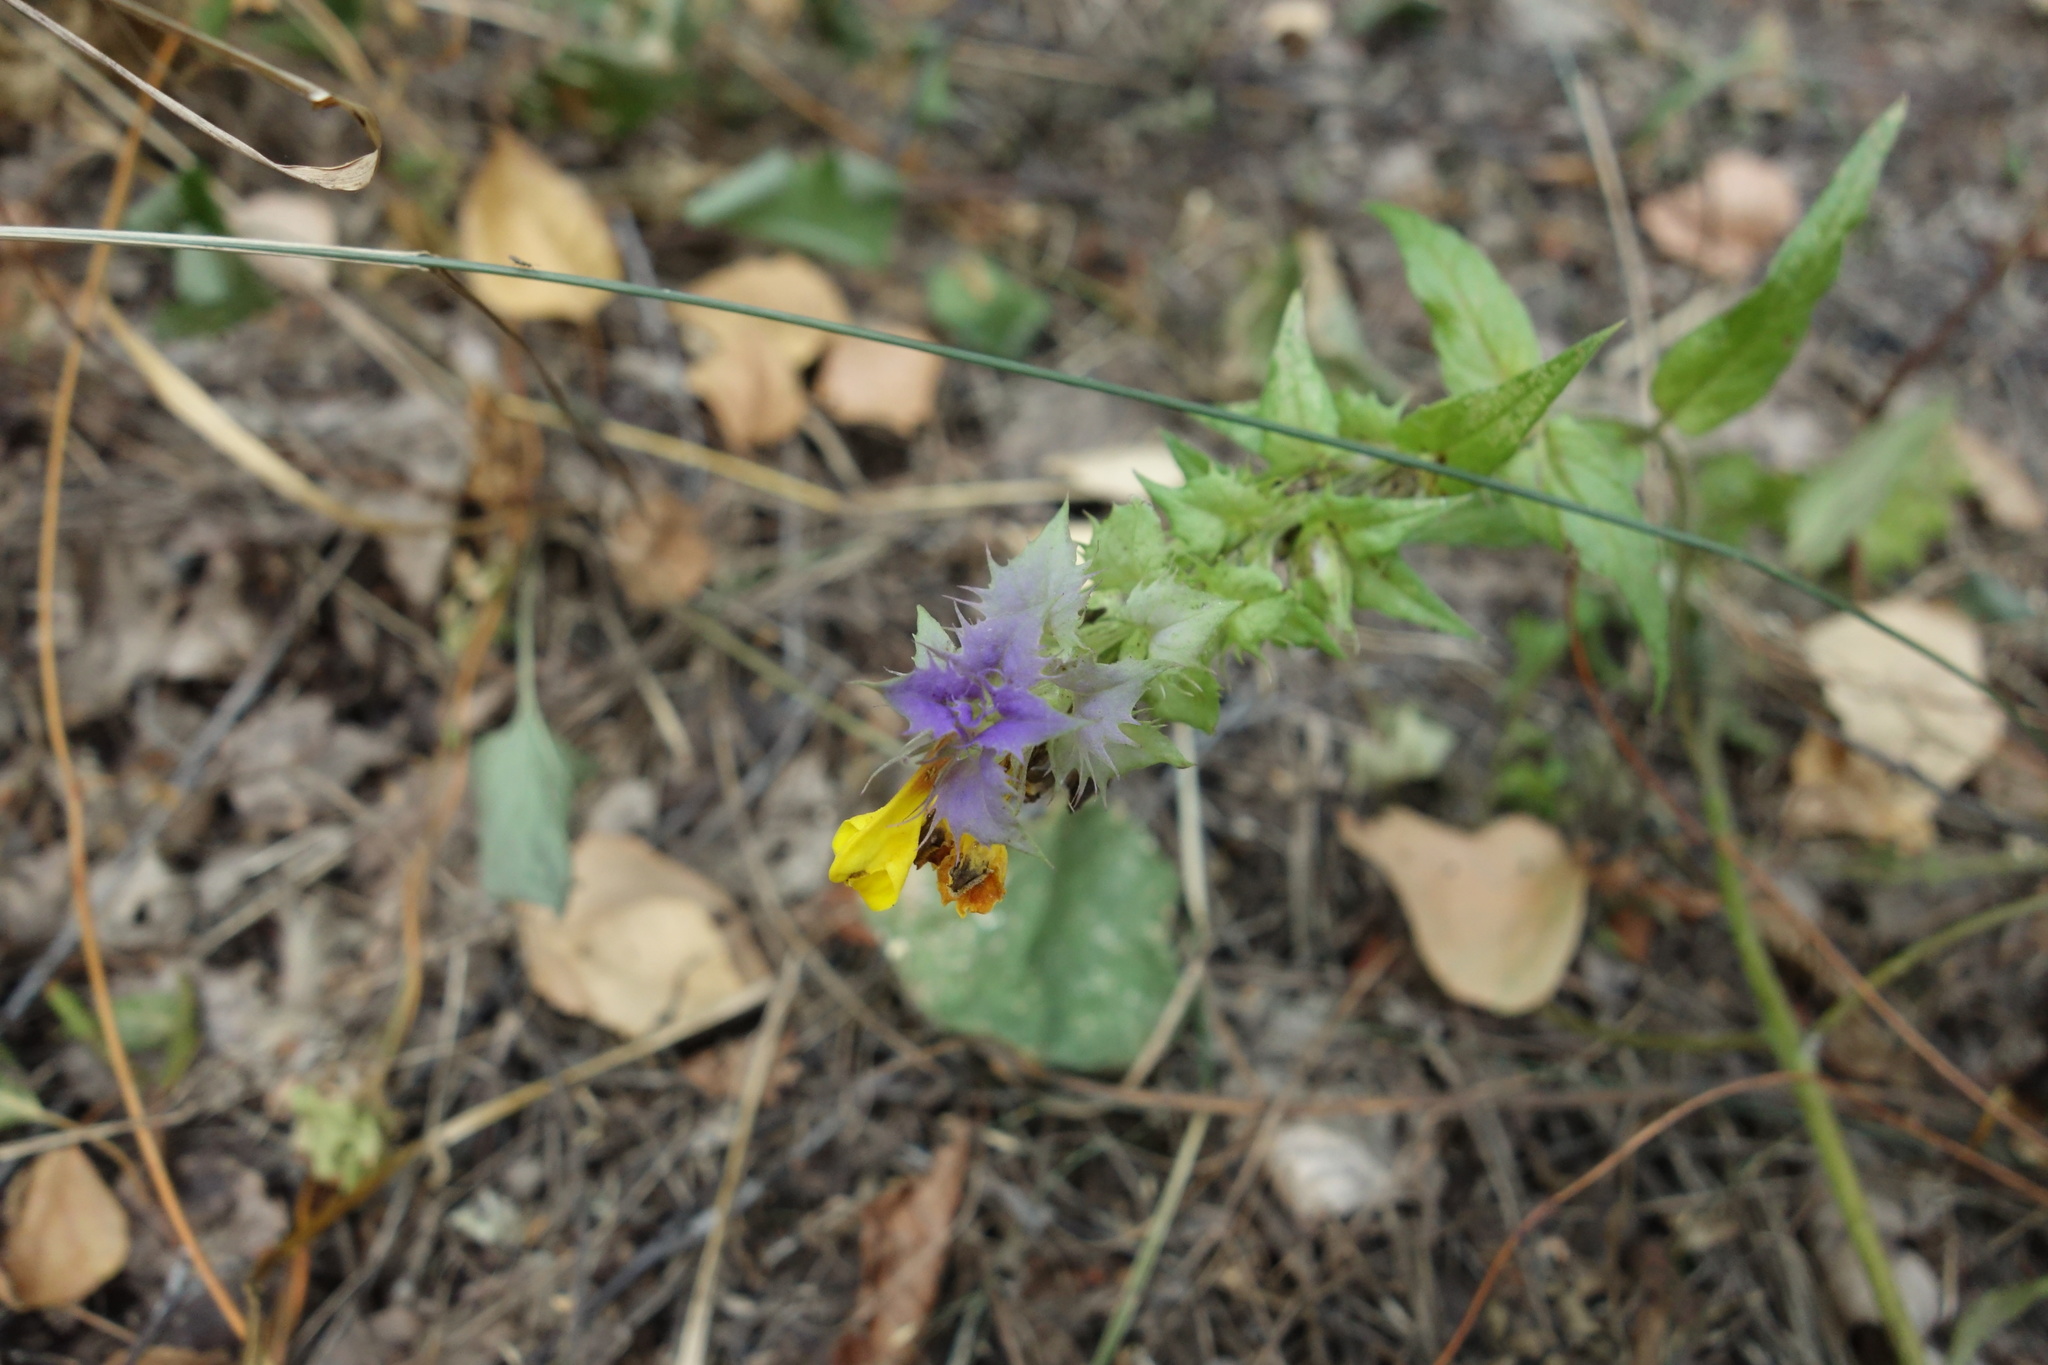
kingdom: Plantae
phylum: Tracheophyta
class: Magnoliopsida
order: Lamiales
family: Orobanchaceae
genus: Melampyrum
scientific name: Melampyrum nemorosum
